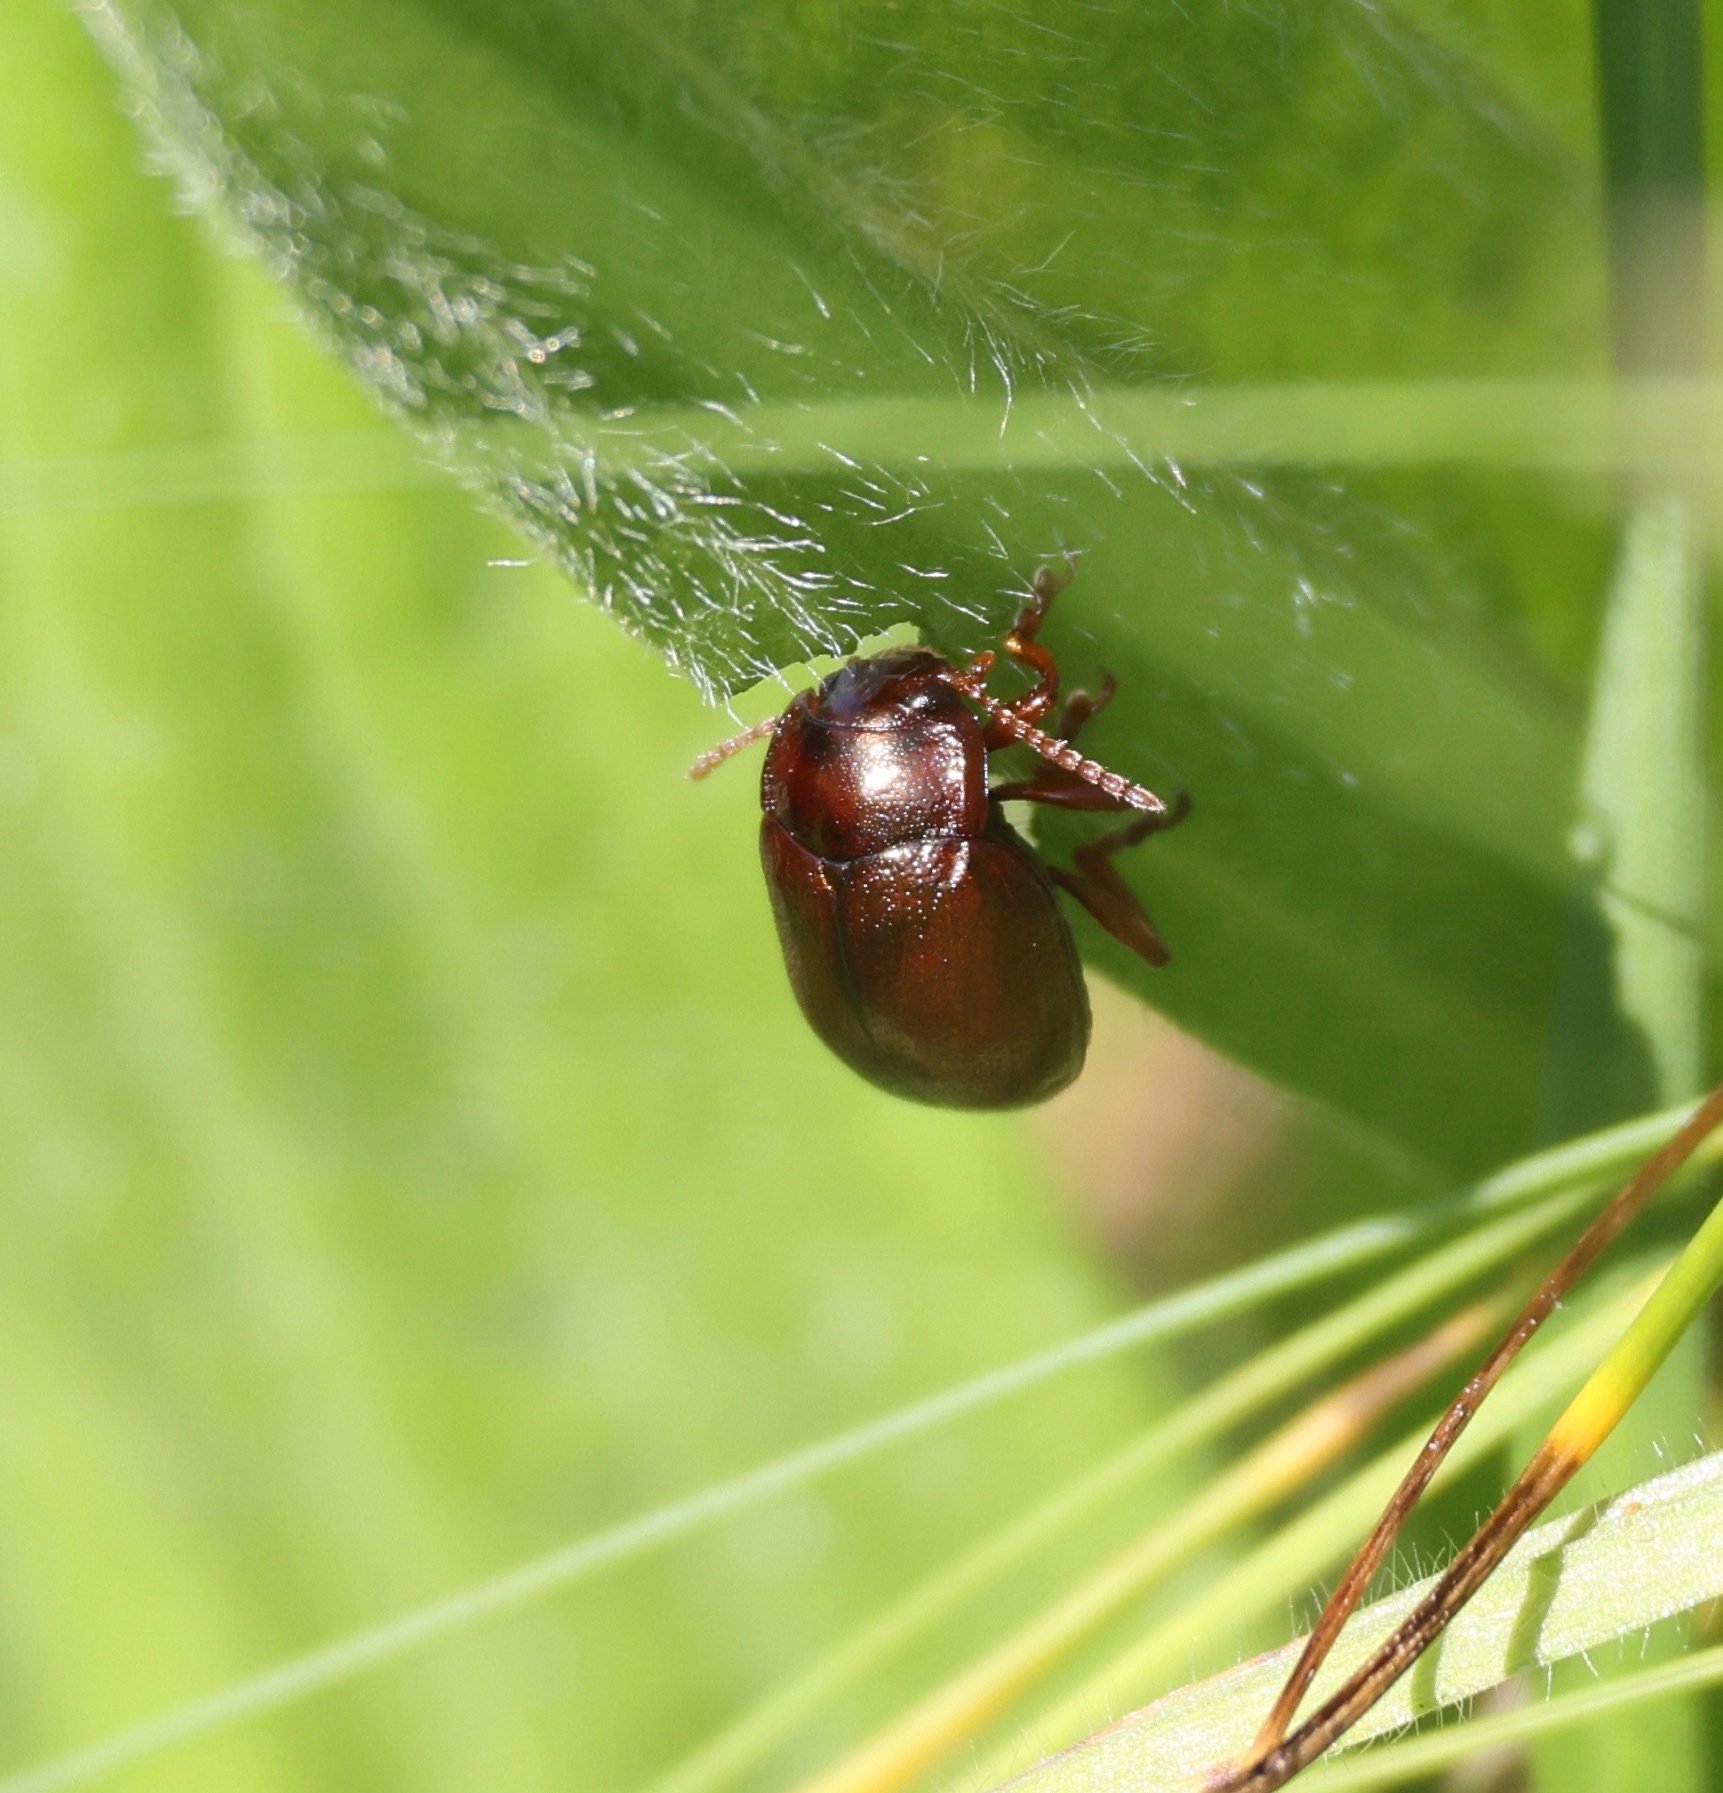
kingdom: Animalia
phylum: Arthropoda
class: Insecta
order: Coleoptera
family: Chrysomelidae
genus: Chrysolina
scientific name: Chrysolina staphylaea
